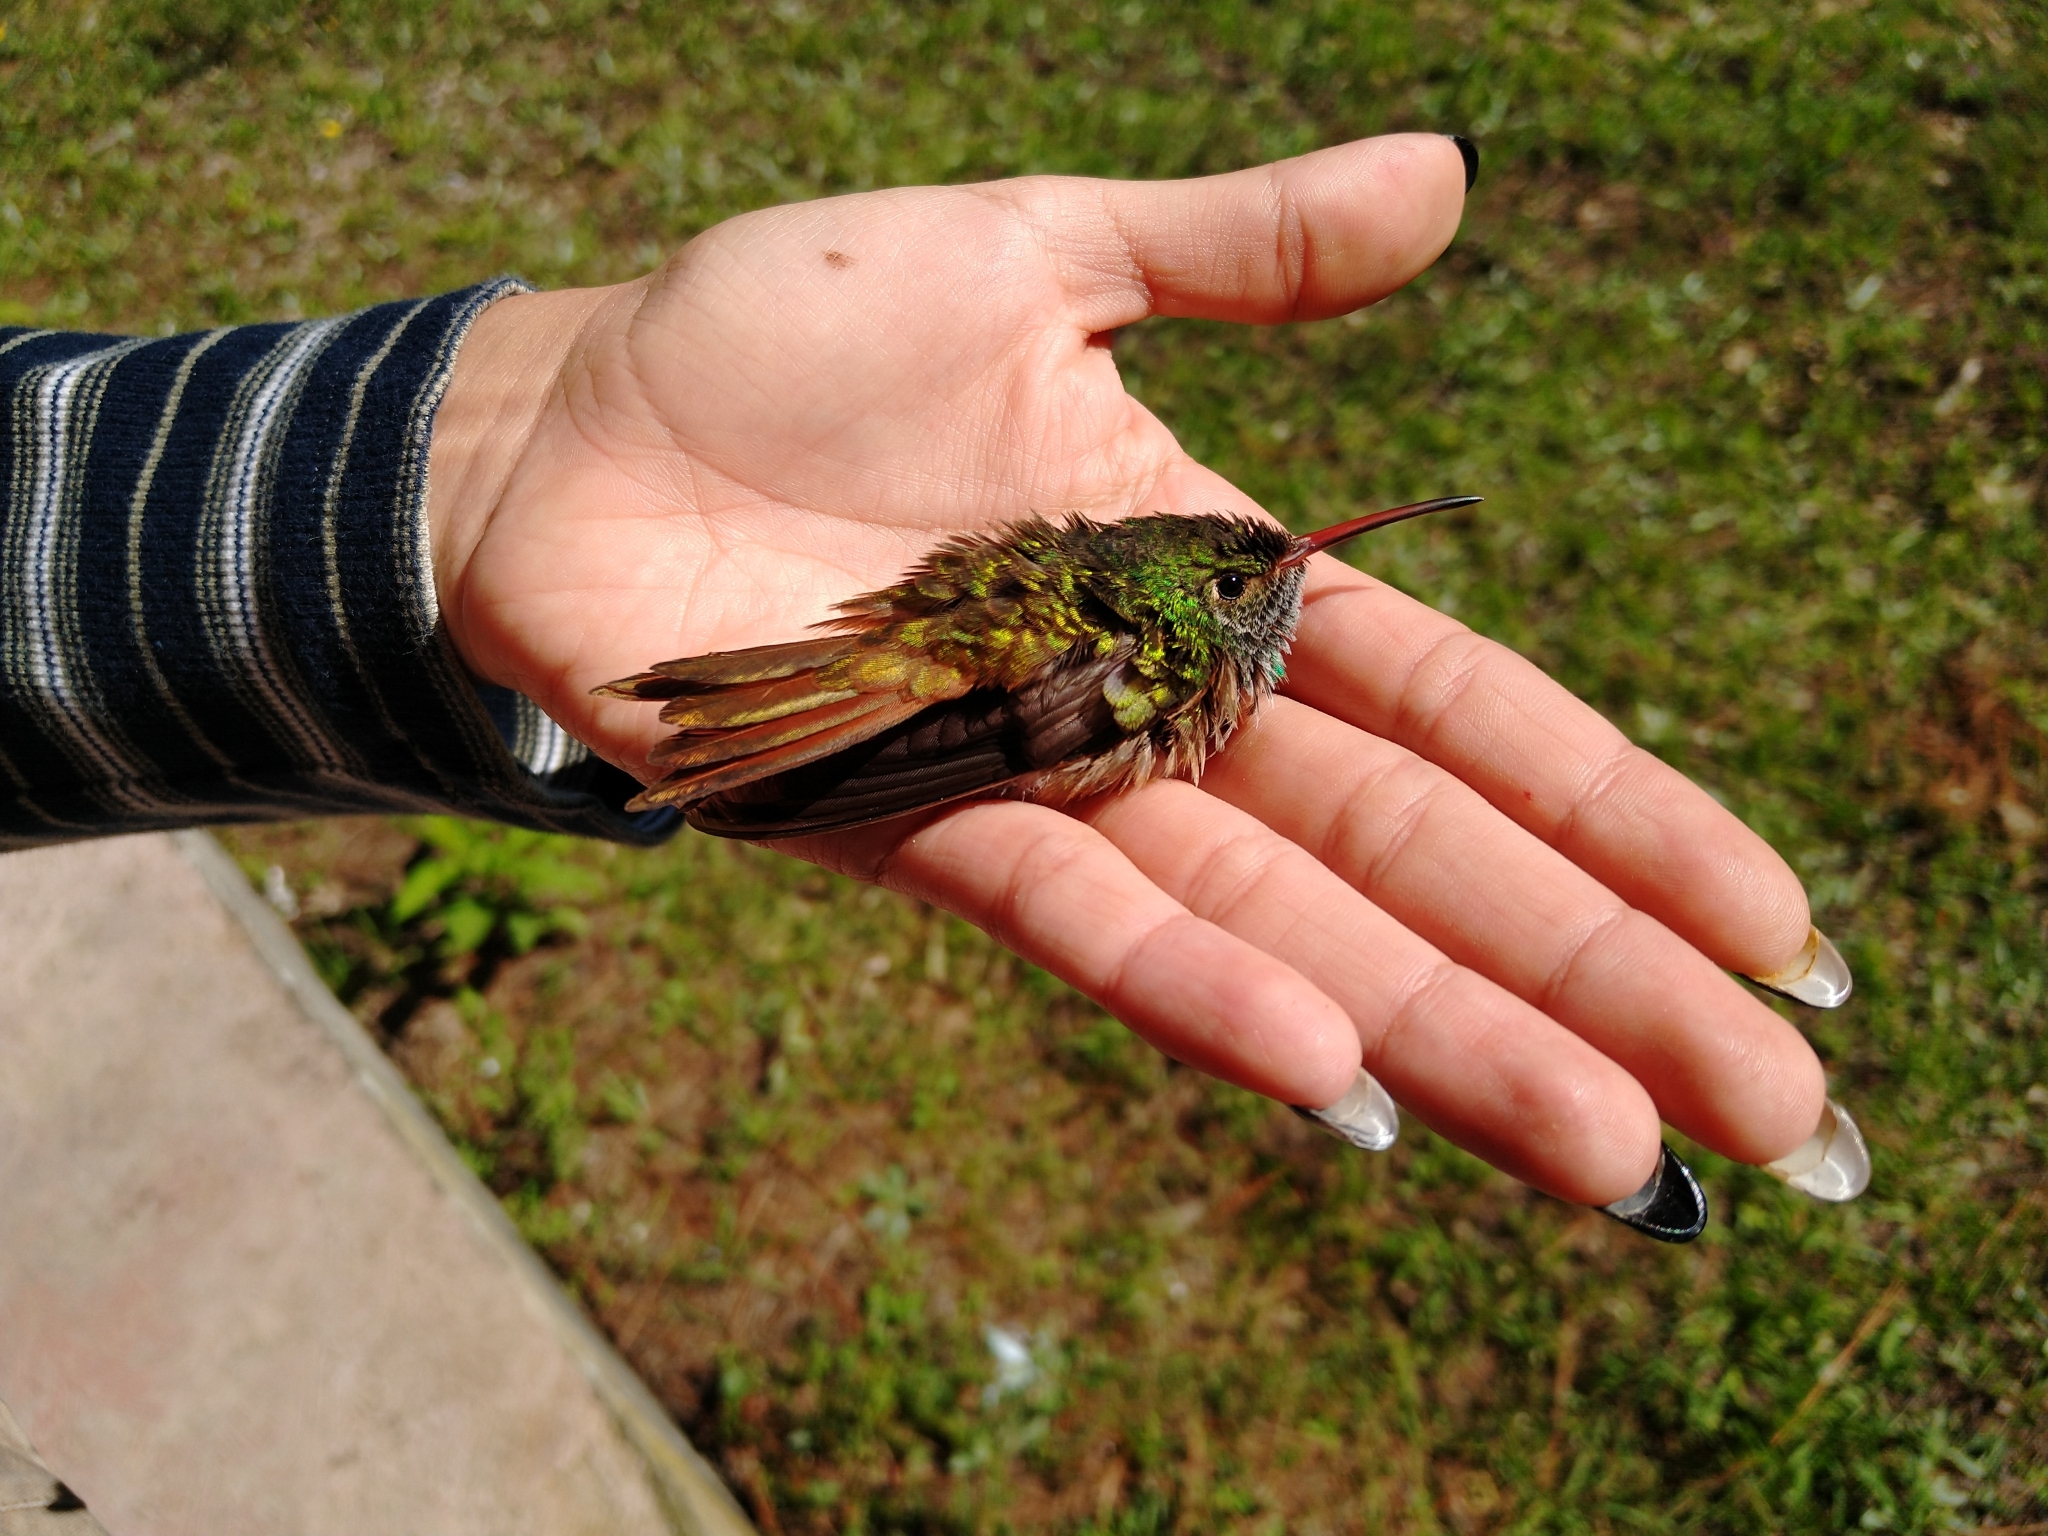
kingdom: Animalia
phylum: Chordata
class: Aves
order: Apodiformes
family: Trochilidae
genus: Amazilia
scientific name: Amazilia yucatanensis
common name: Buff-bellied hummingbird
